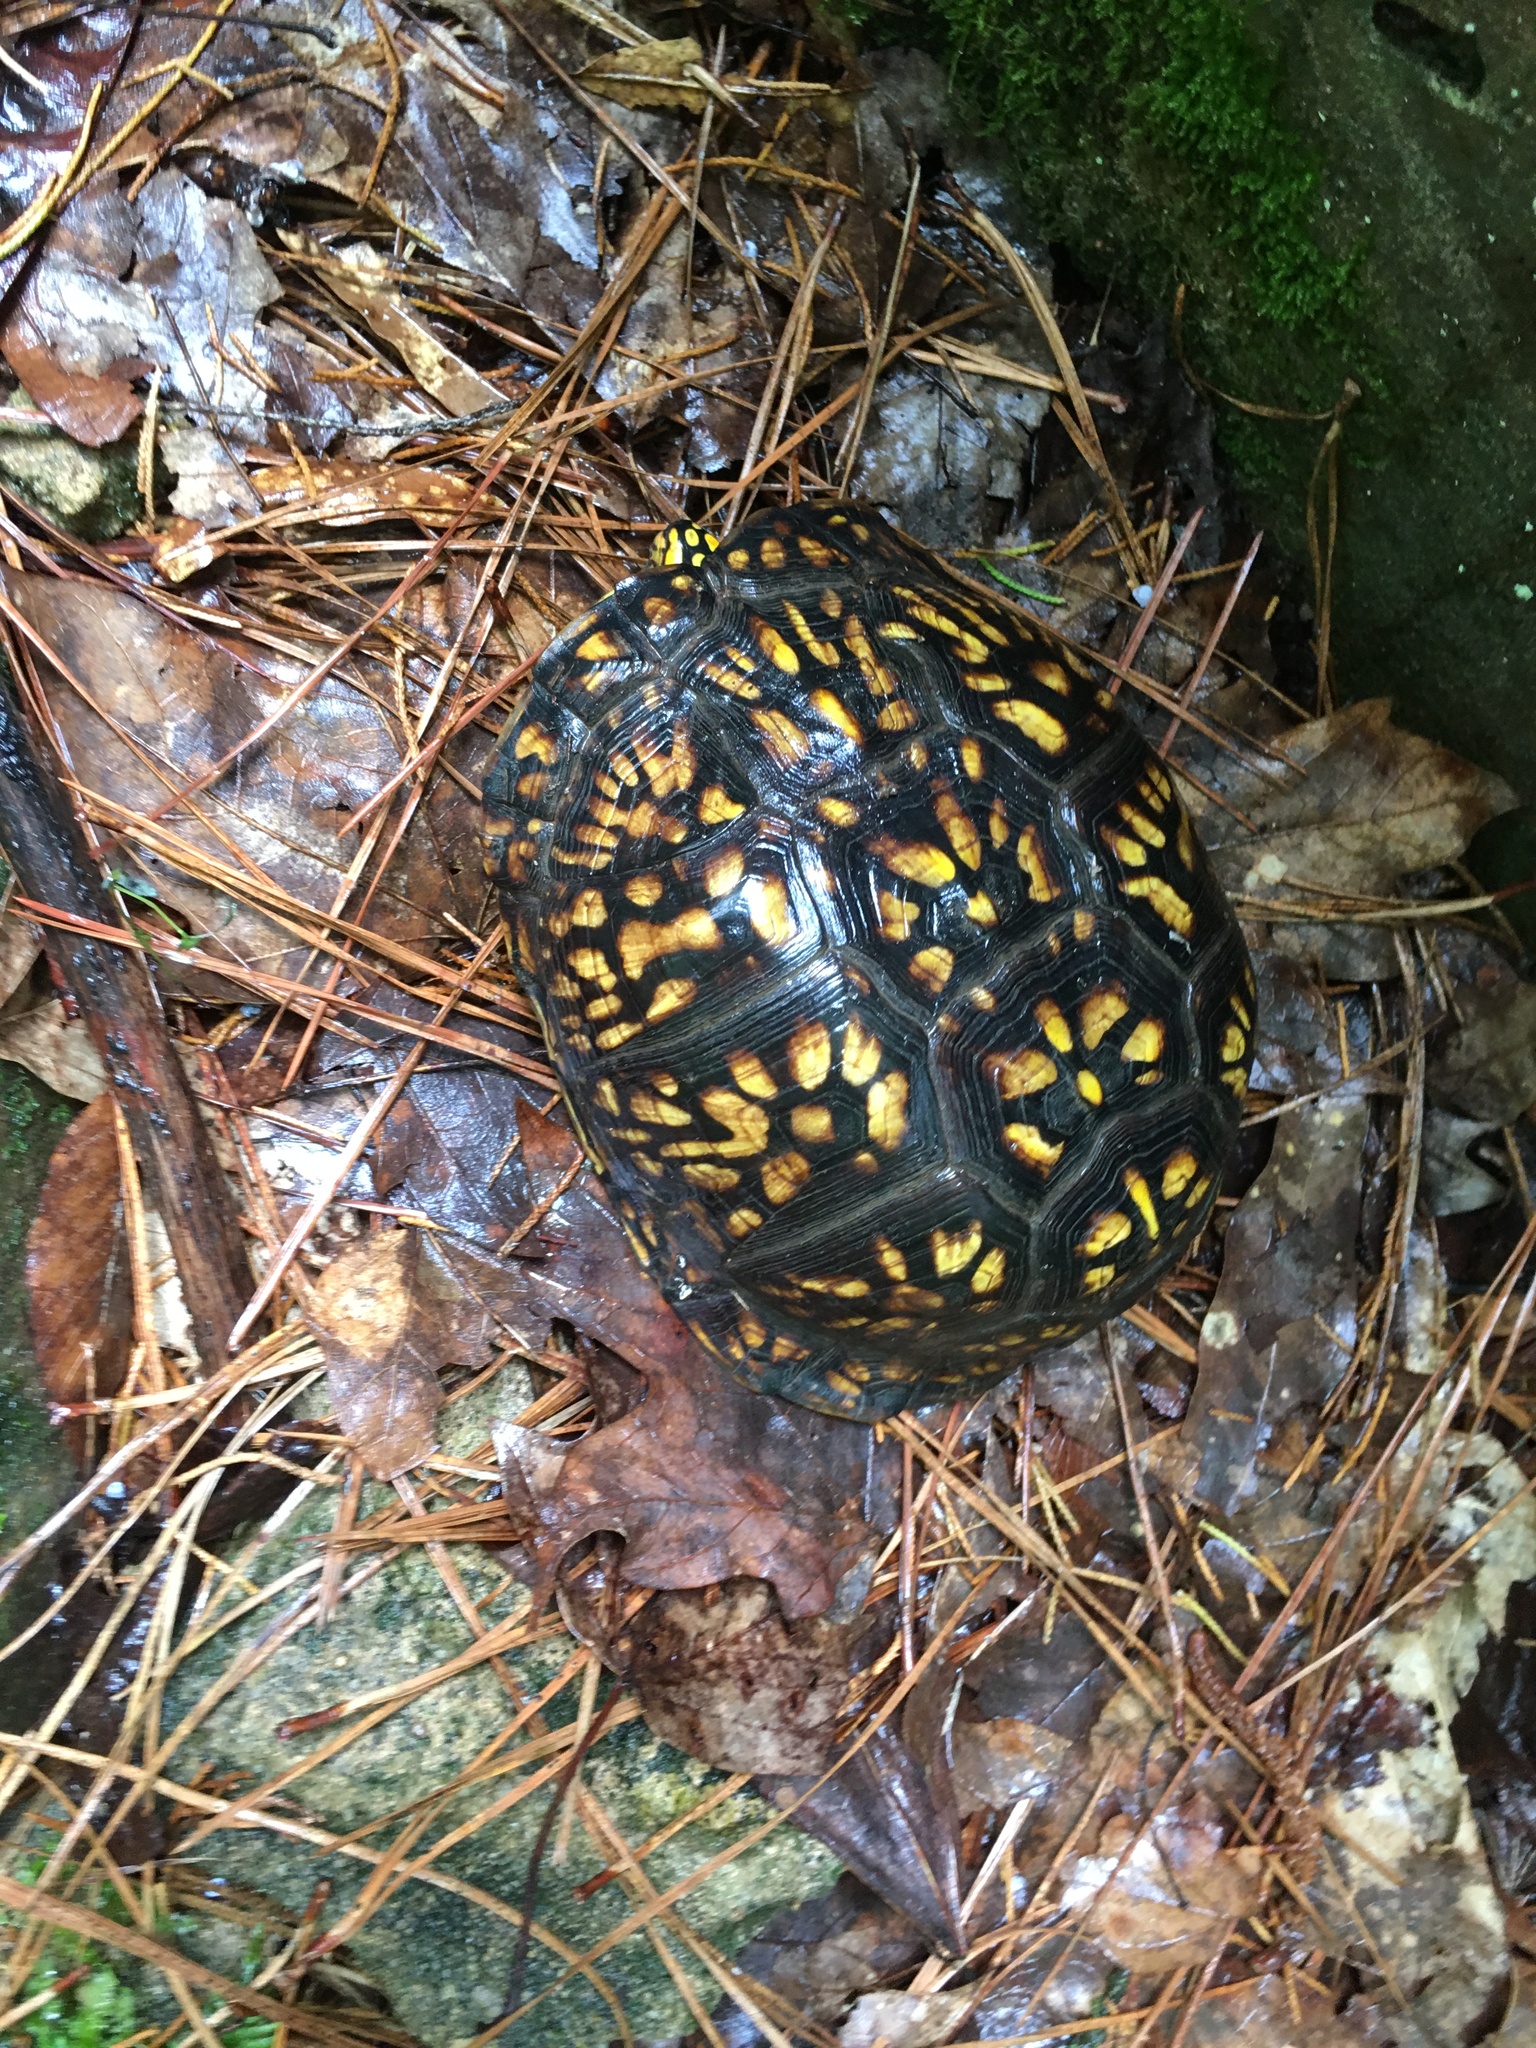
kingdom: Animalia
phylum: Chordata
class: Testudines
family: Emydidae
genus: Terrapene
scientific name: Terrapene carolina
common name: Common box turtle
